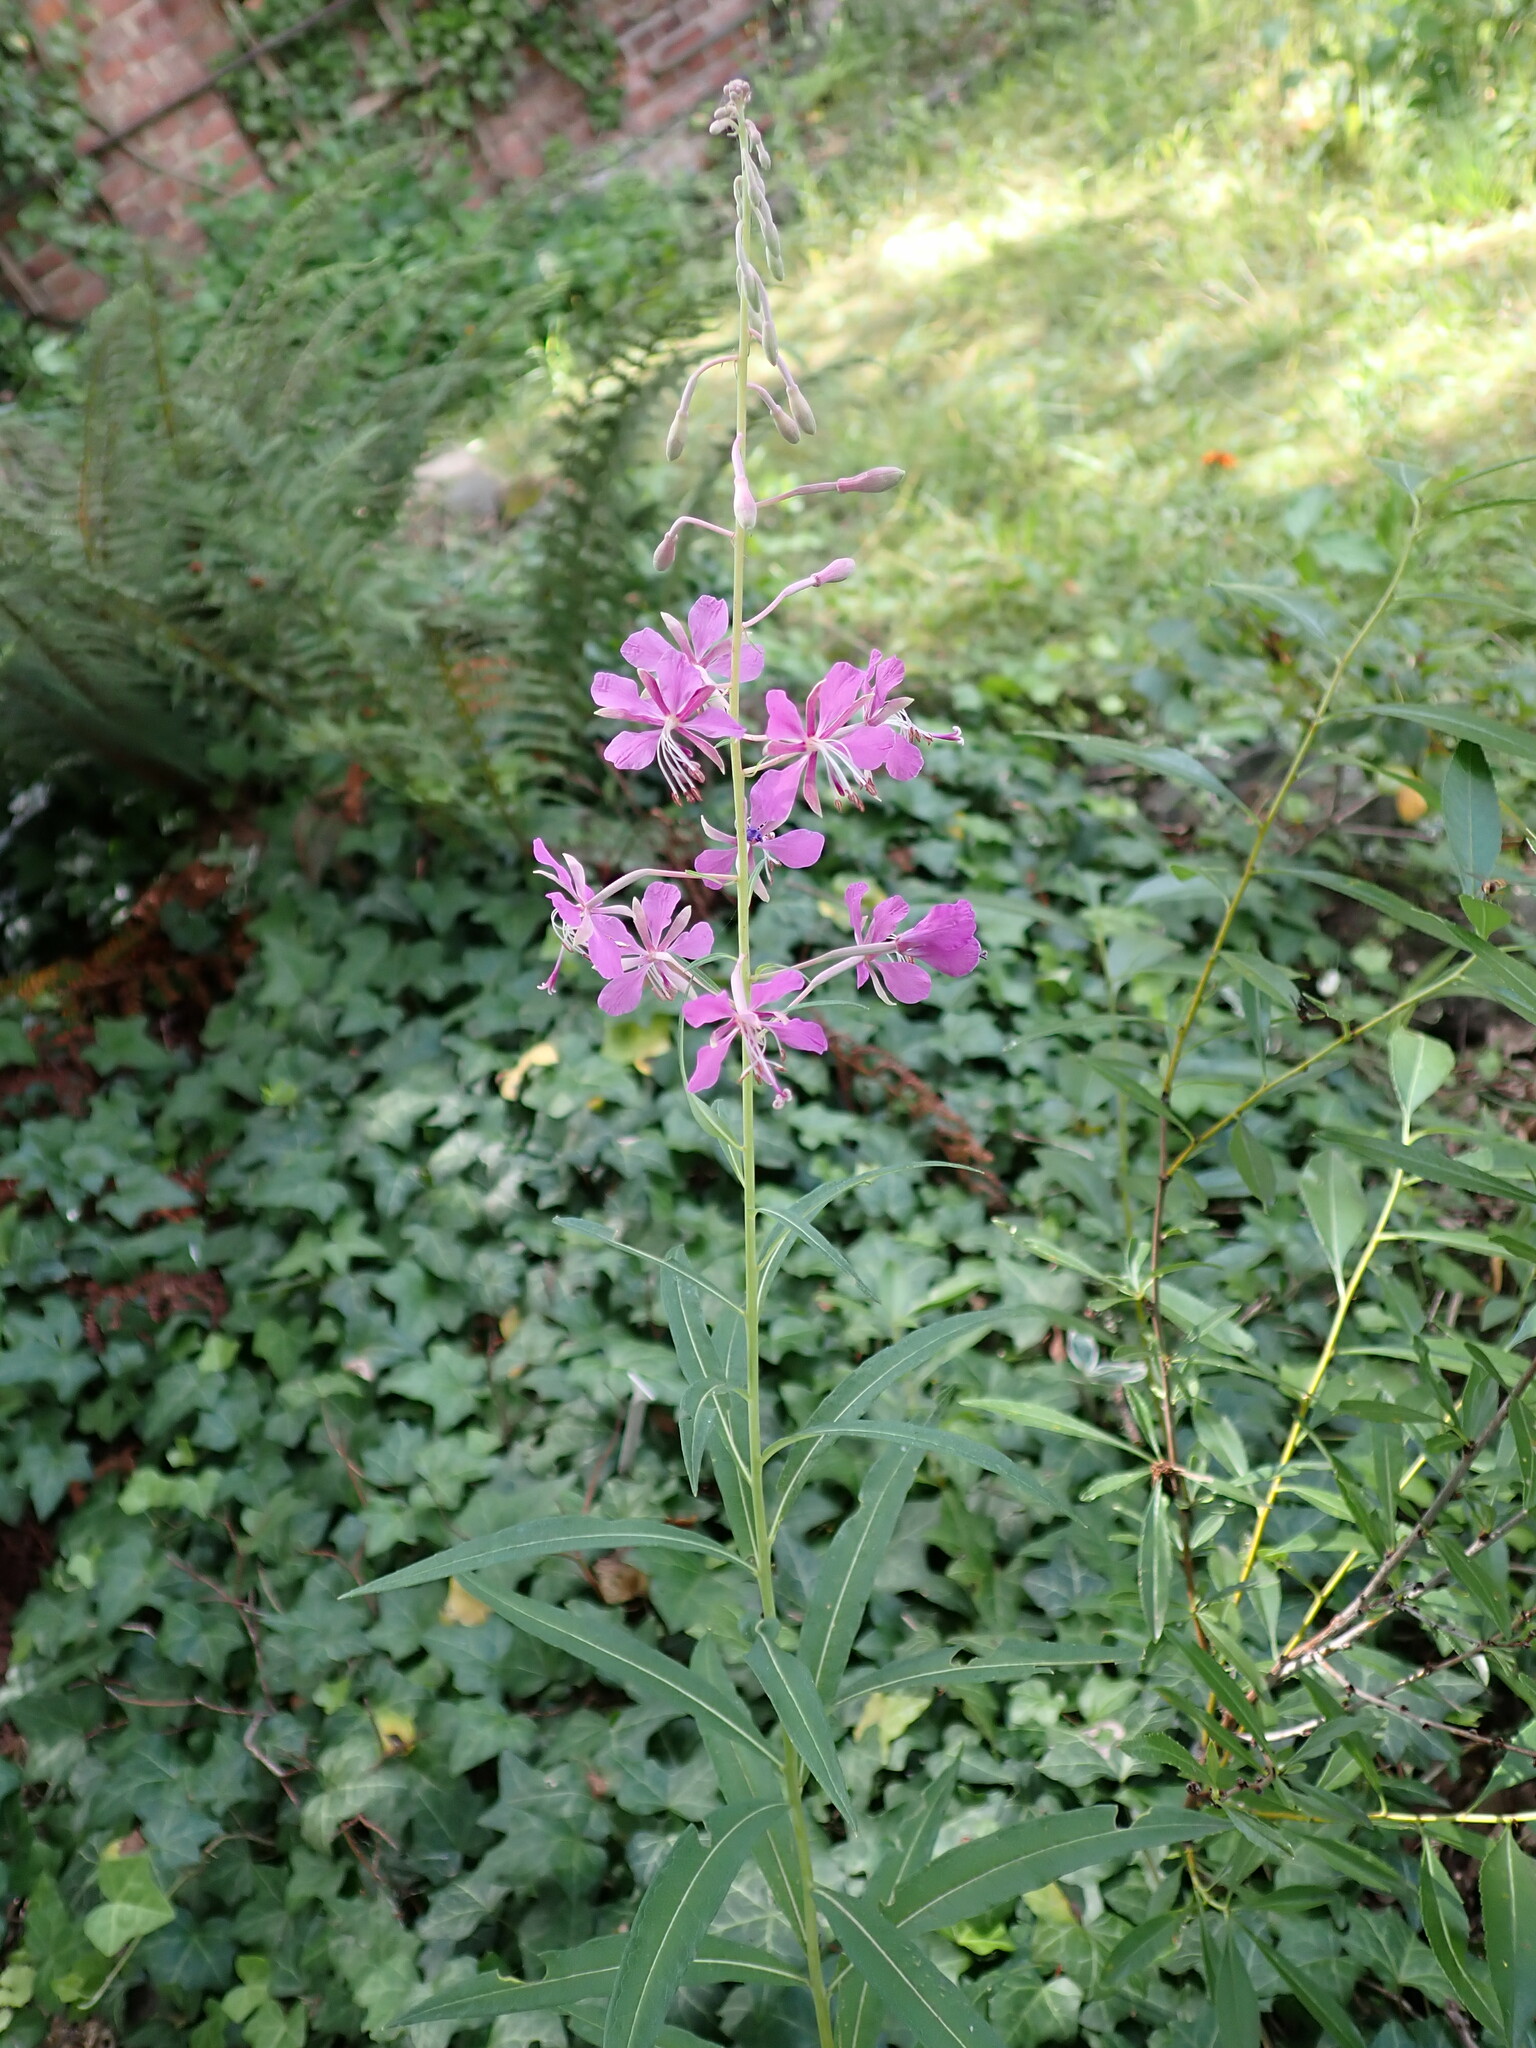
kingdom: Plantae
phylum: Tracheophyta
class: Magnoliopsida
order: Myrtales
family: Onagraceae
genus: Chamaenerion
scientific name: Chamaenerion angustifolium
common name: Fireweed
